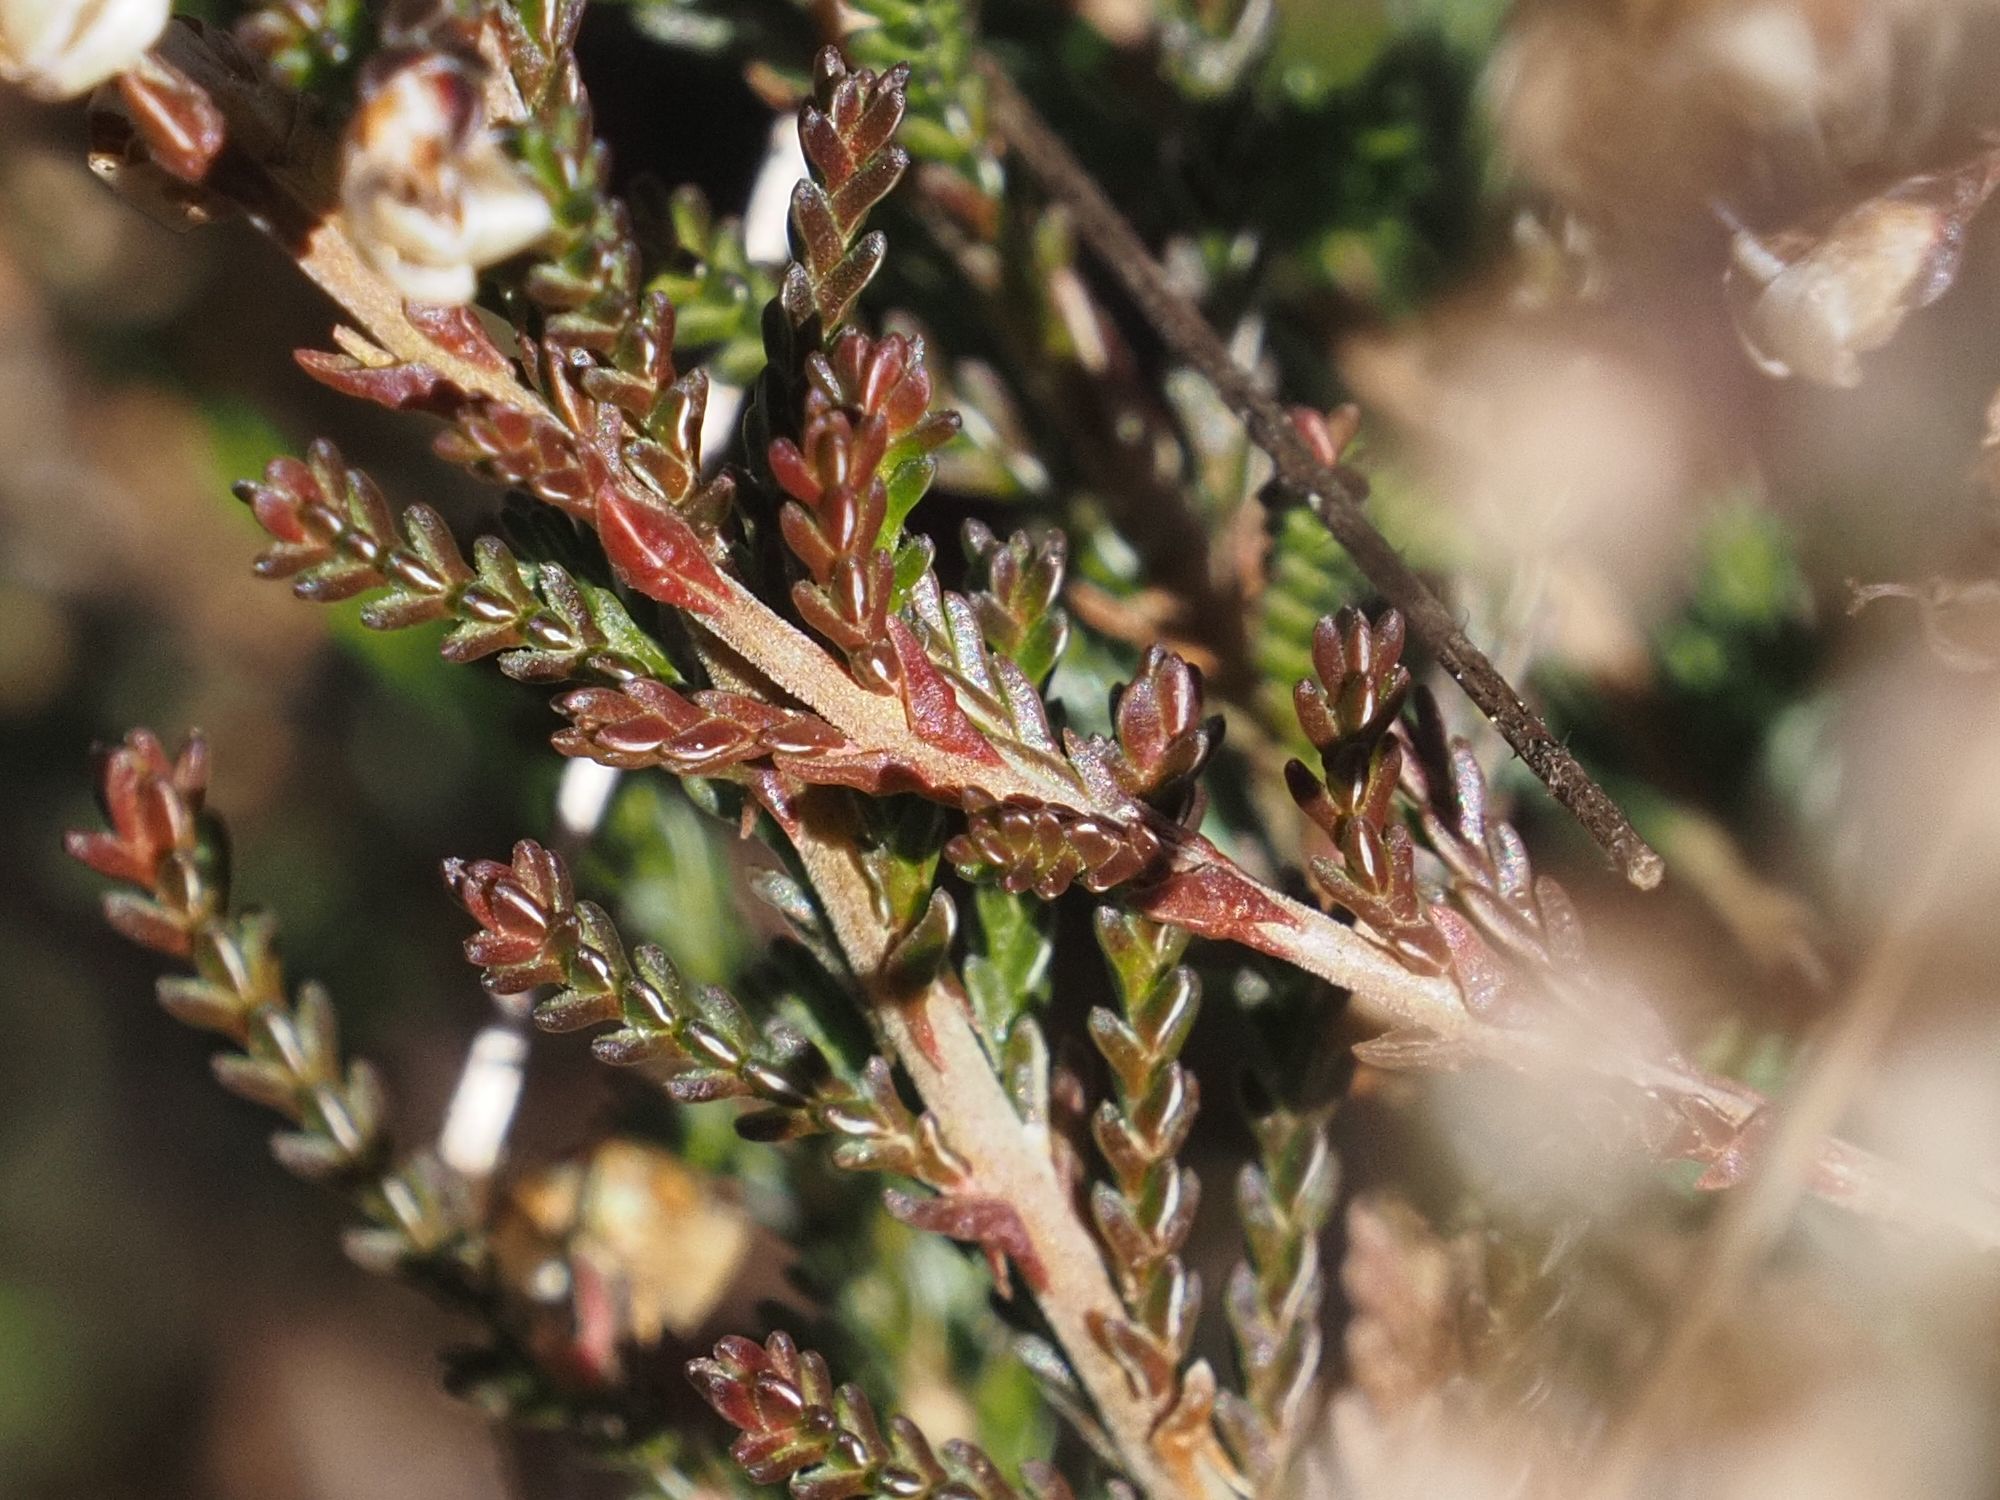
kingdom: Plantae
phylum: Tracheophyta
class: Magnoliopsida
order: Ericales
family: Ericaceae
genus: Calluna
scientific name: Calluna vulgaris
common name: Heather
